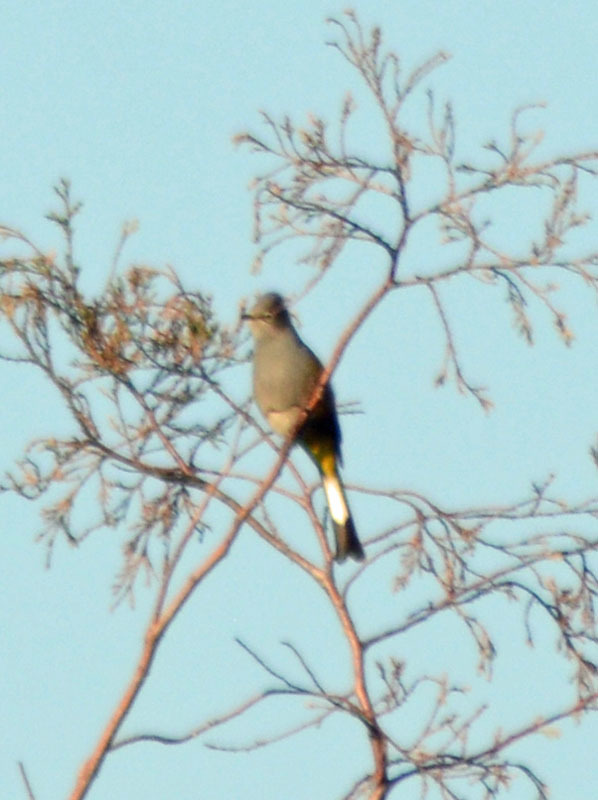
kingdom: Animalia
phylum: Chordata
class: Aves
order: Passeriformes
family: Ptilogonatidae
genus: Ptilogonys
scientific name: Ptilogonys cinereus
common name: Gray silky-flycatcher
